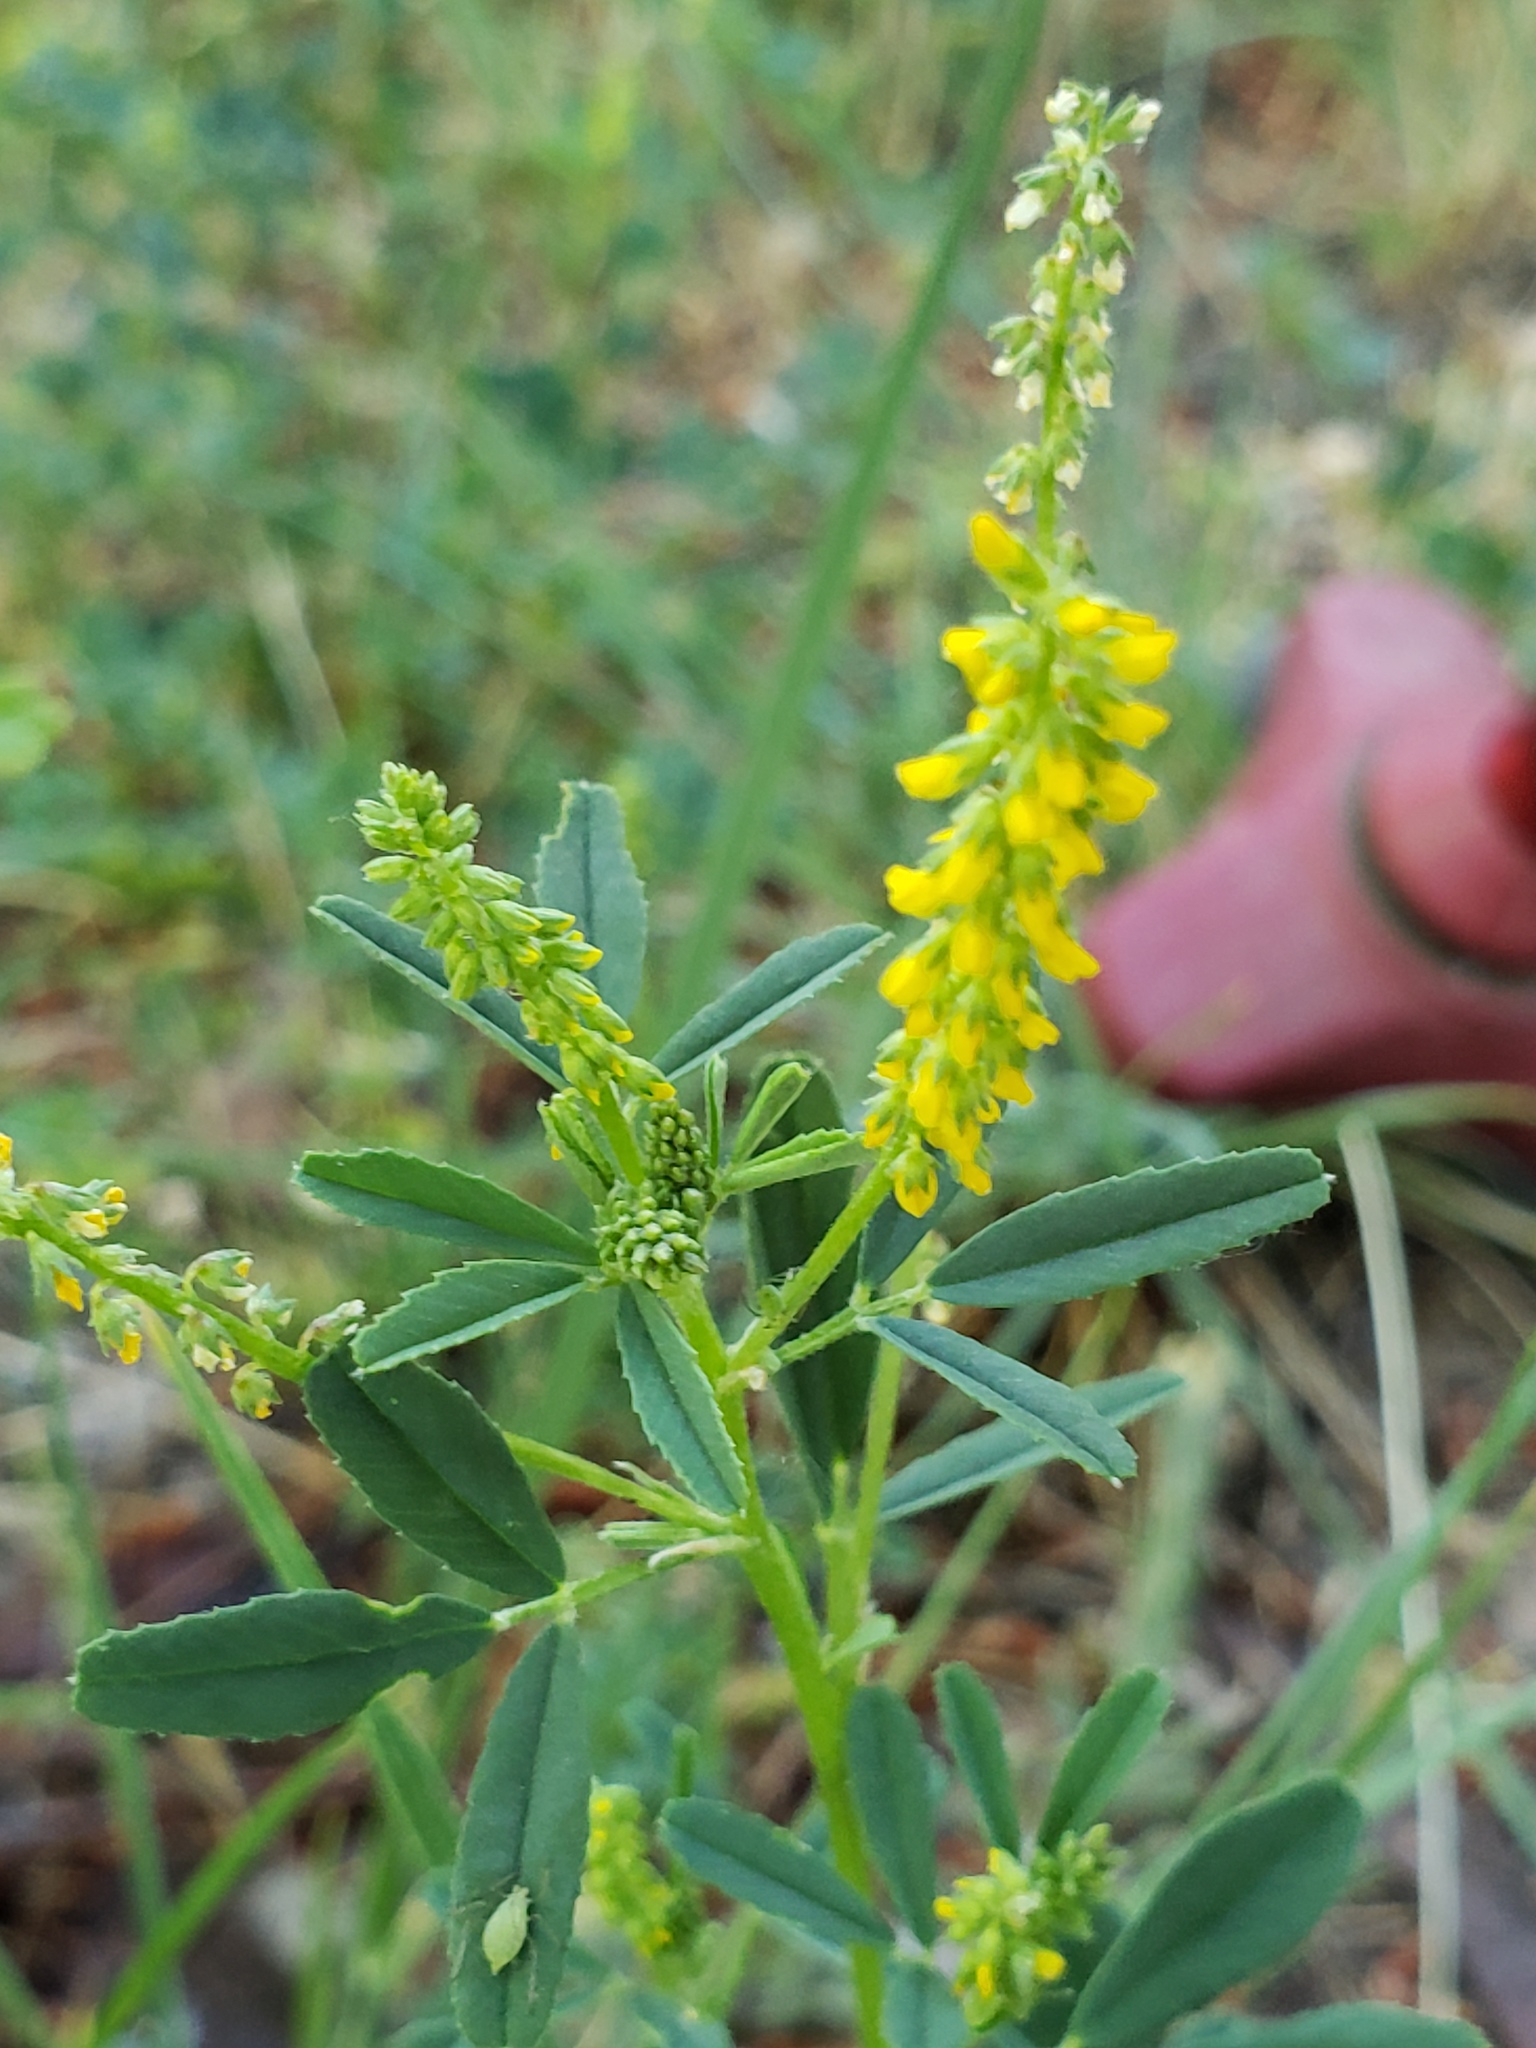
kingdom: Plantae
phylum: Tracheophyta
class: Magnoliopsida
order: Fabales
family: Fabaceae
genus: Melilotus
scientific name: Melilotus indicus
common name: Small melilot
